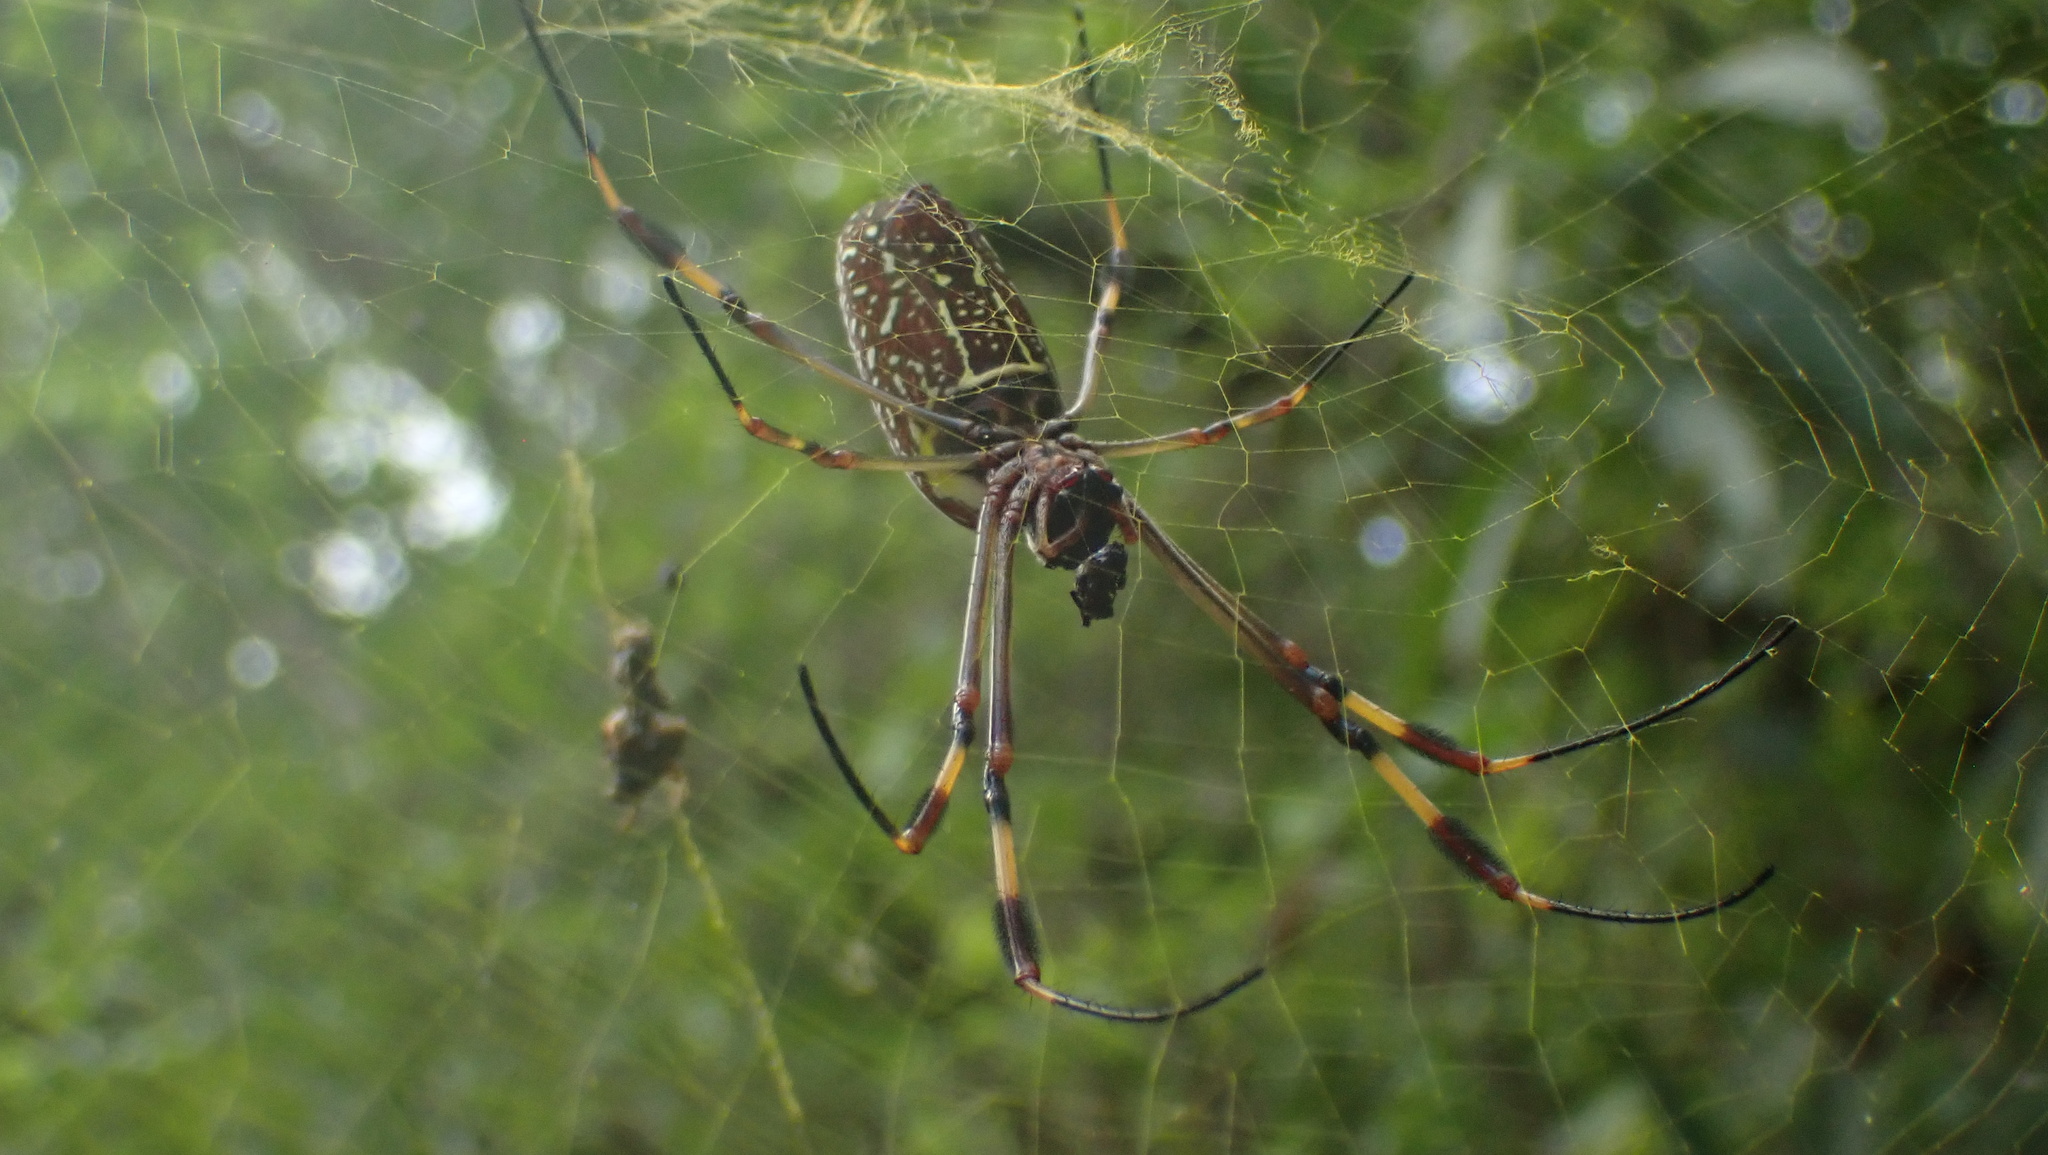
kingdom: Animalia
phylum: Arthropoda
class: Arachnida
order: Araneae
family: Araneidae
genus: Trichonephila
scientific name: Trichonephila clavipes
